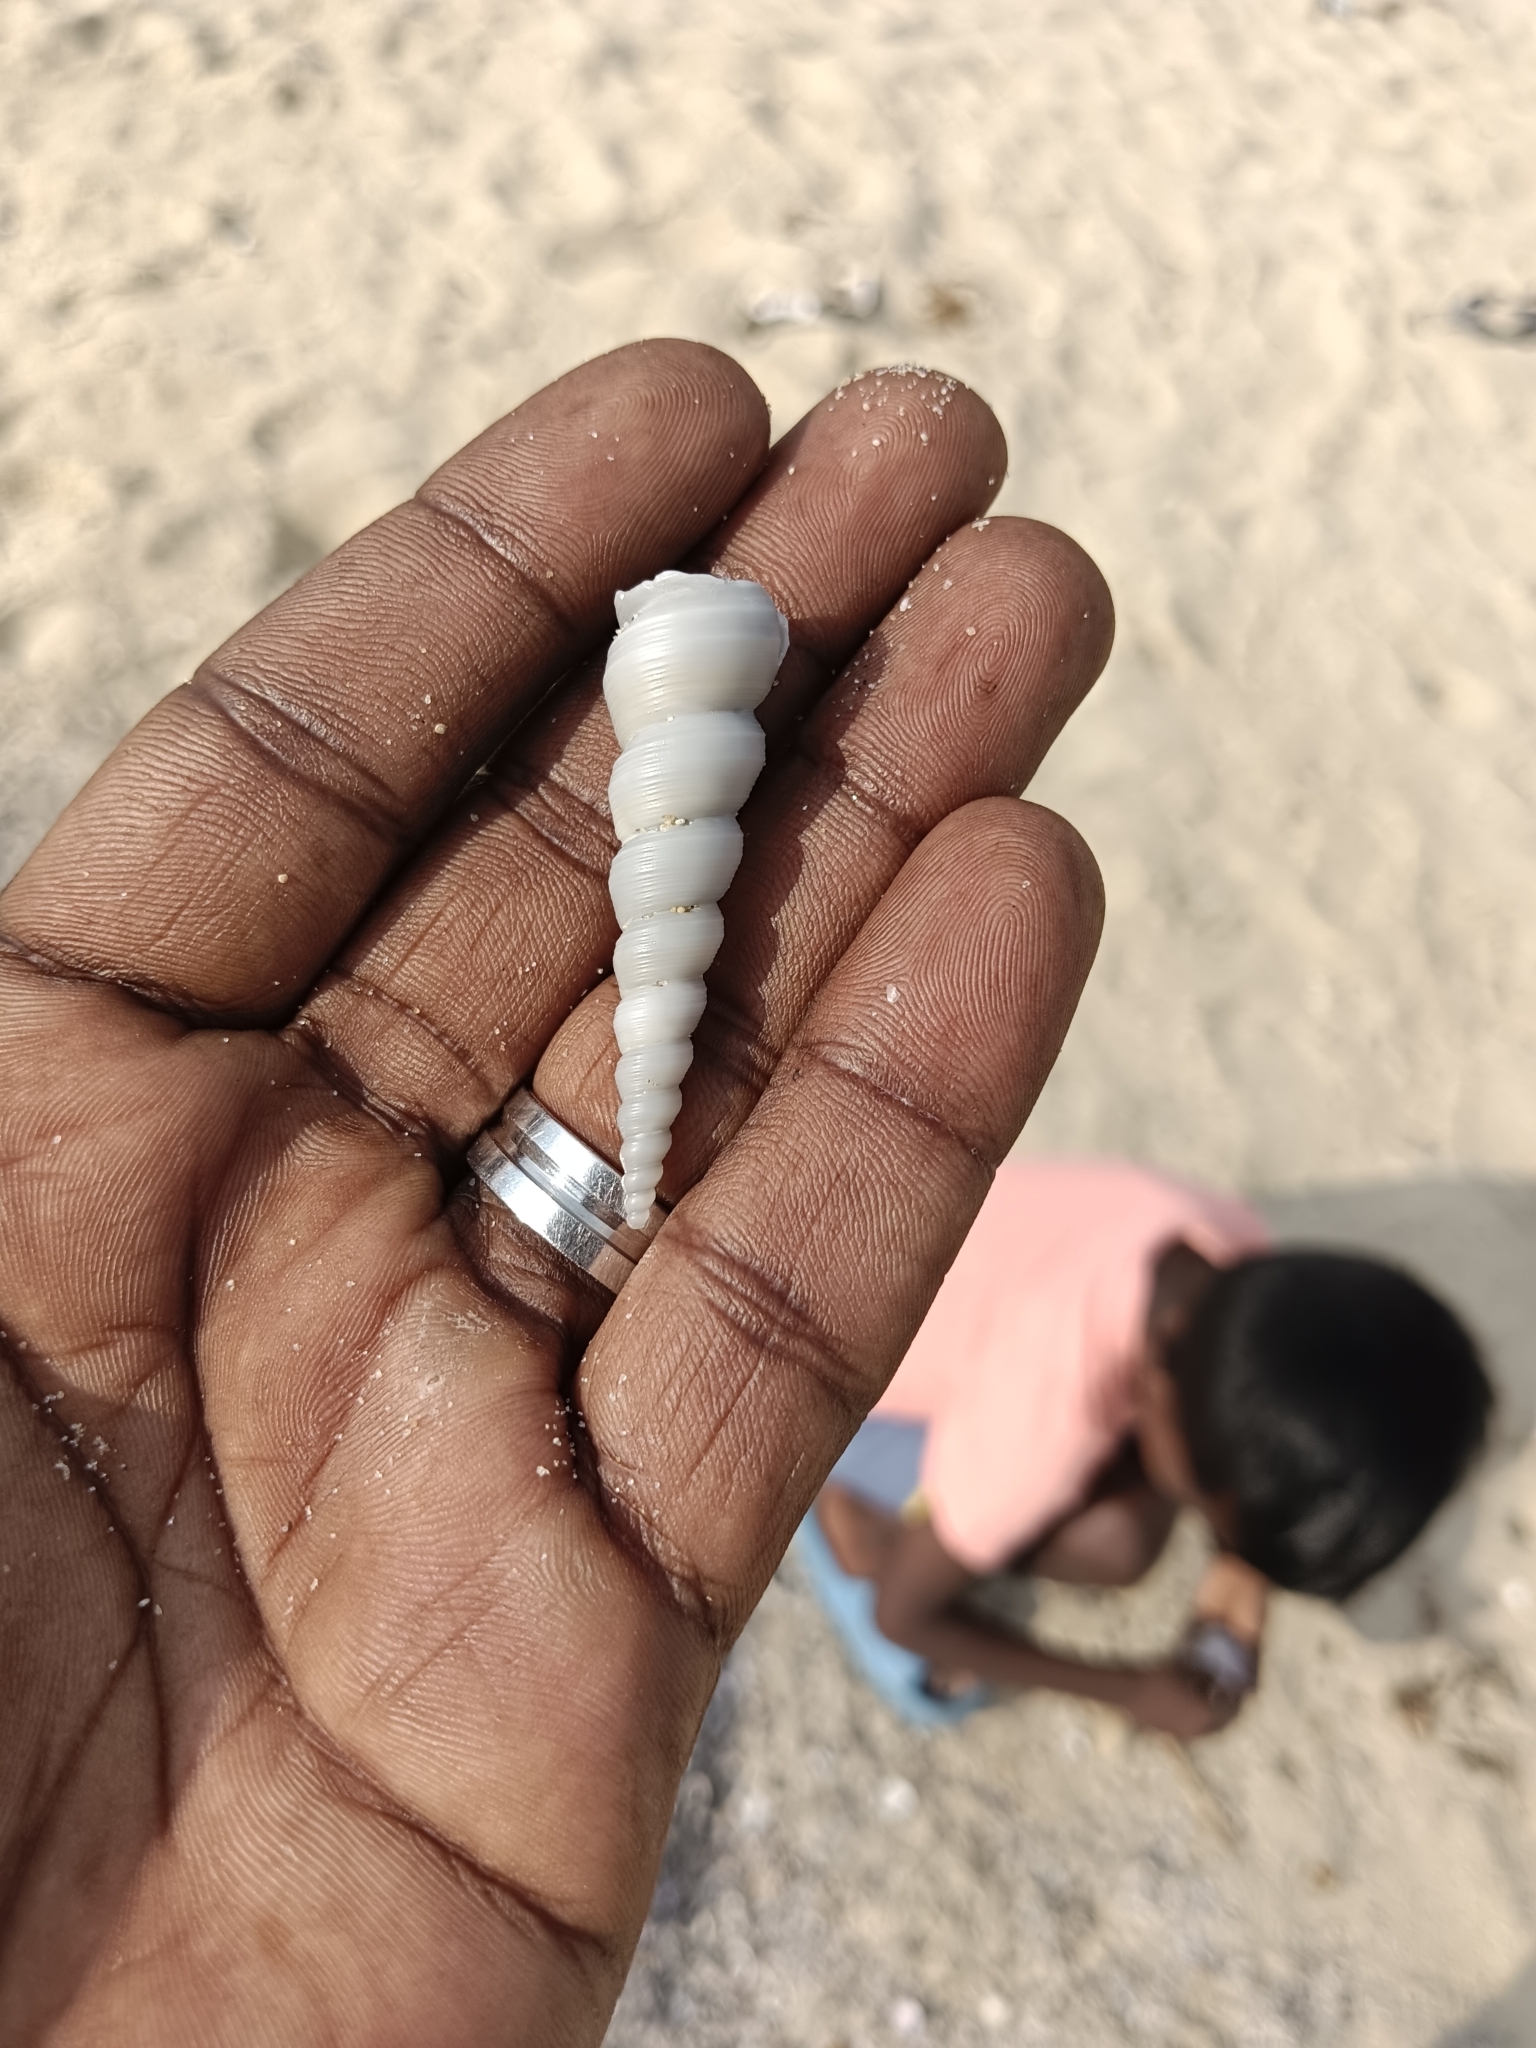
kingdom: Animalia
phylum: Mollusca
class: Gastropoda
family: Turritellidae
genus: Turritella
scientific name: Turritella attenuata
